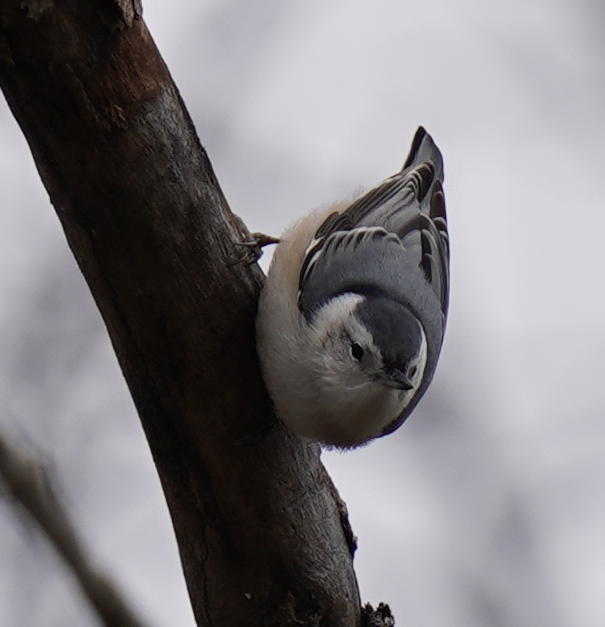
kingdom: Animalia
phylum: Chordata
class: Aves
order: Passeriformes
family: Sittidae
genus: Sitta
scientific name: Sitta carolinensis
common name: White-breasted nuthatch
